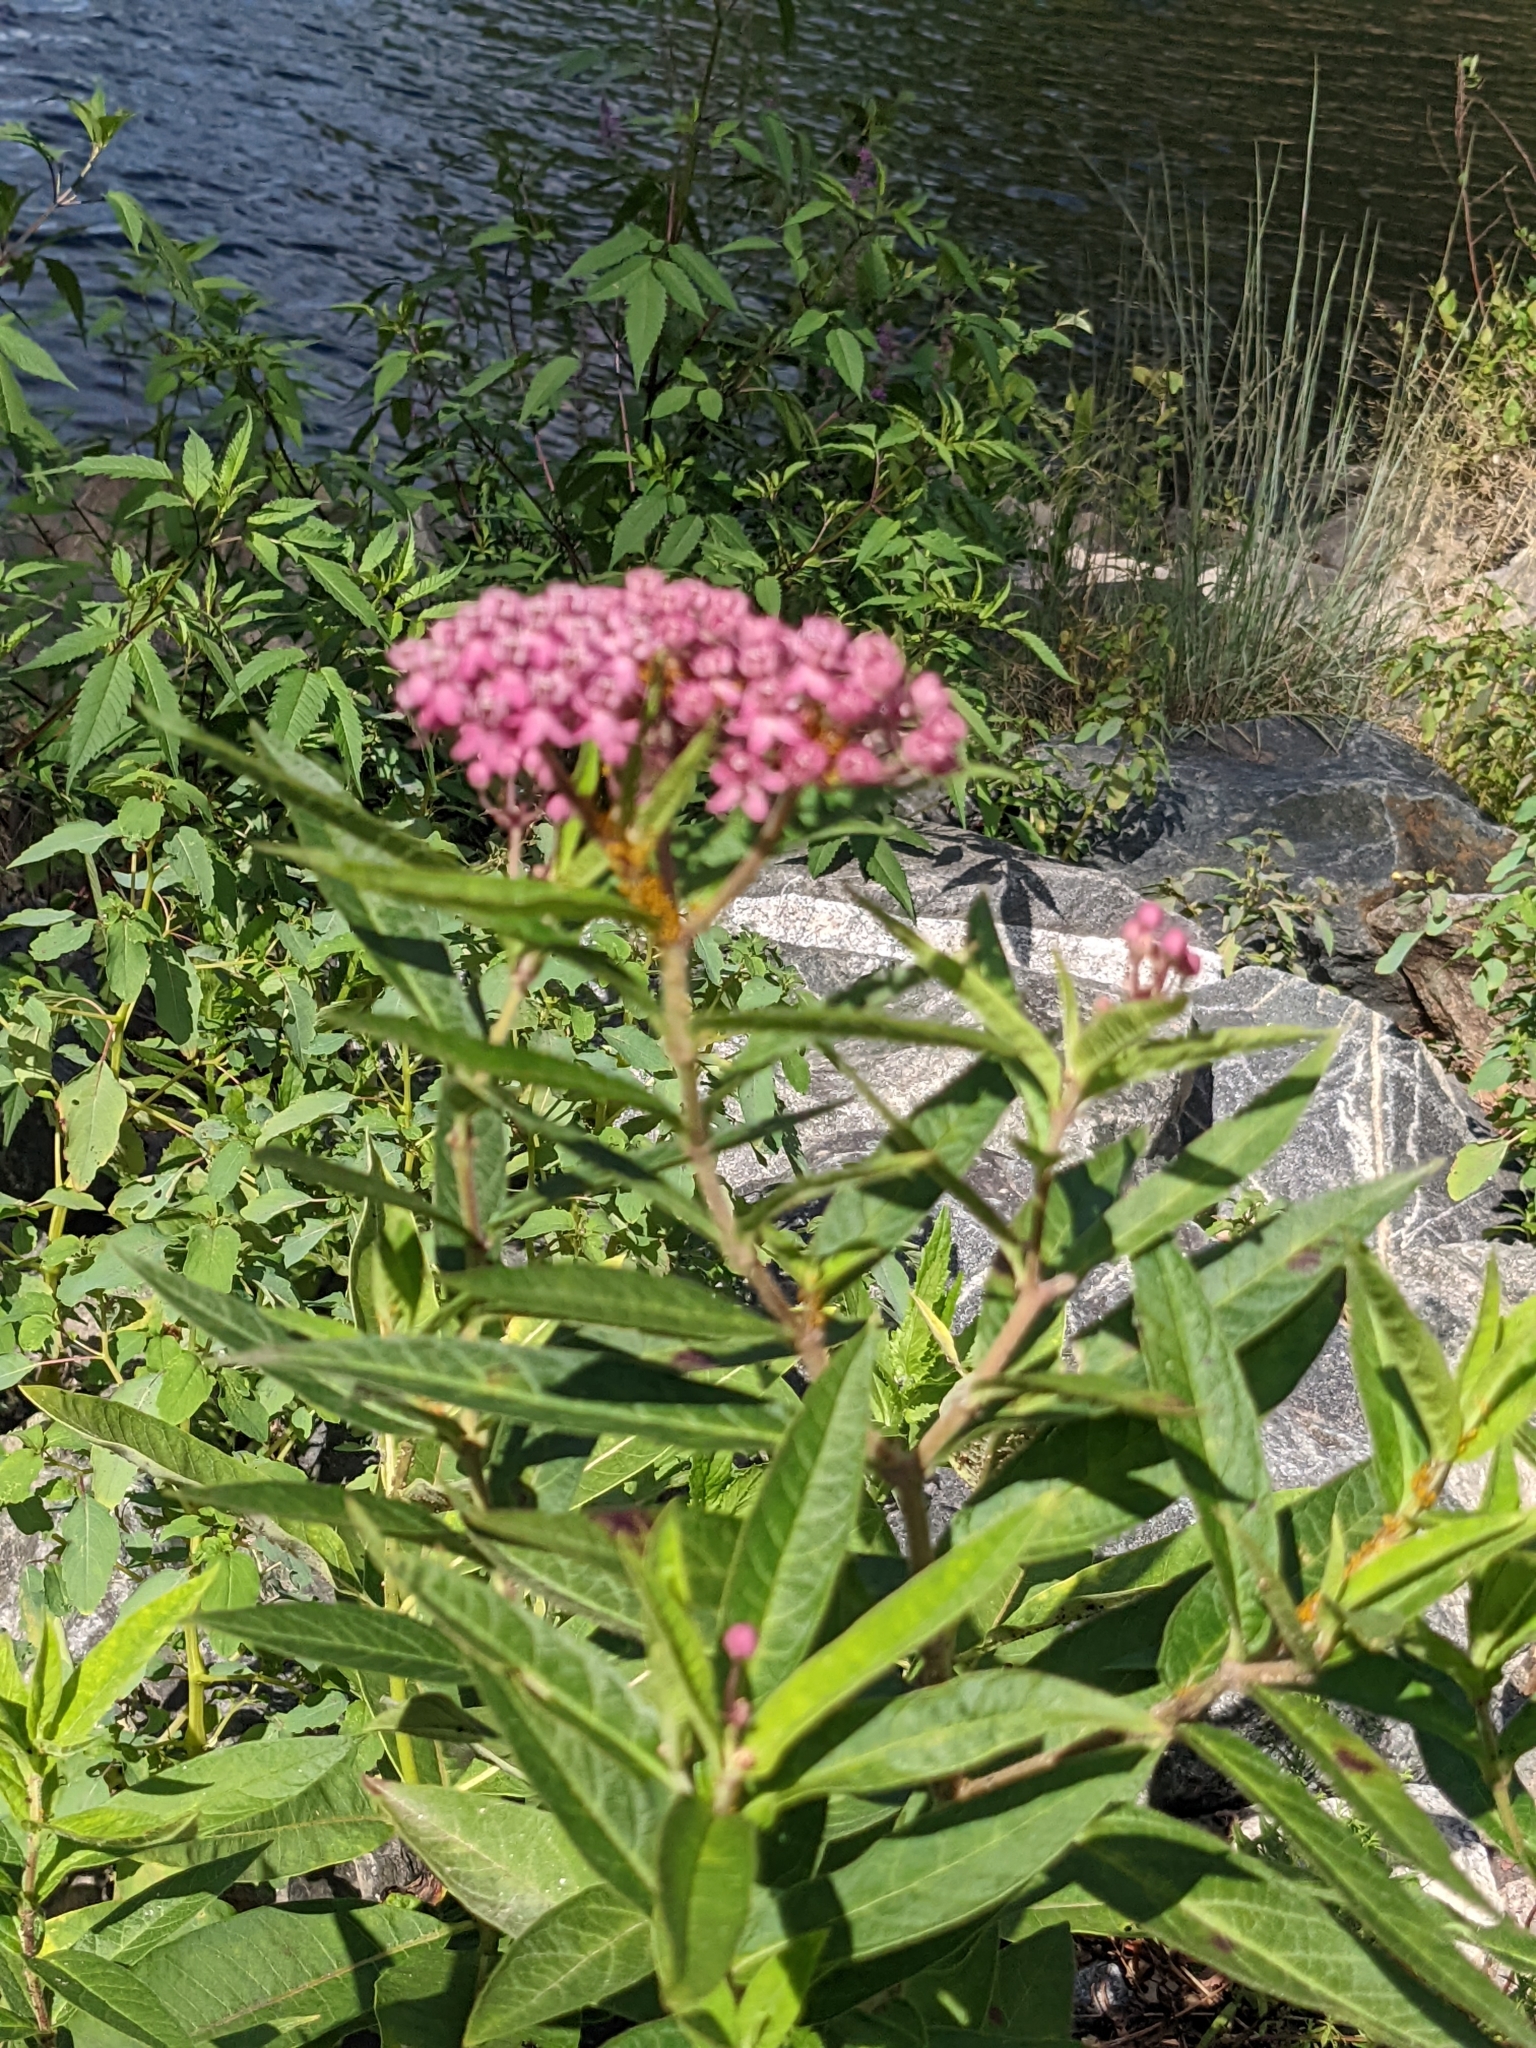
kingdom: Plantae
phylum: Tracheophyta
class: Magnoliopsida
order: Gentianales
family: Apocynaceae
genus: Asclepias
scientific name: Asclepias incarnata
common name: Swamp milkweed
